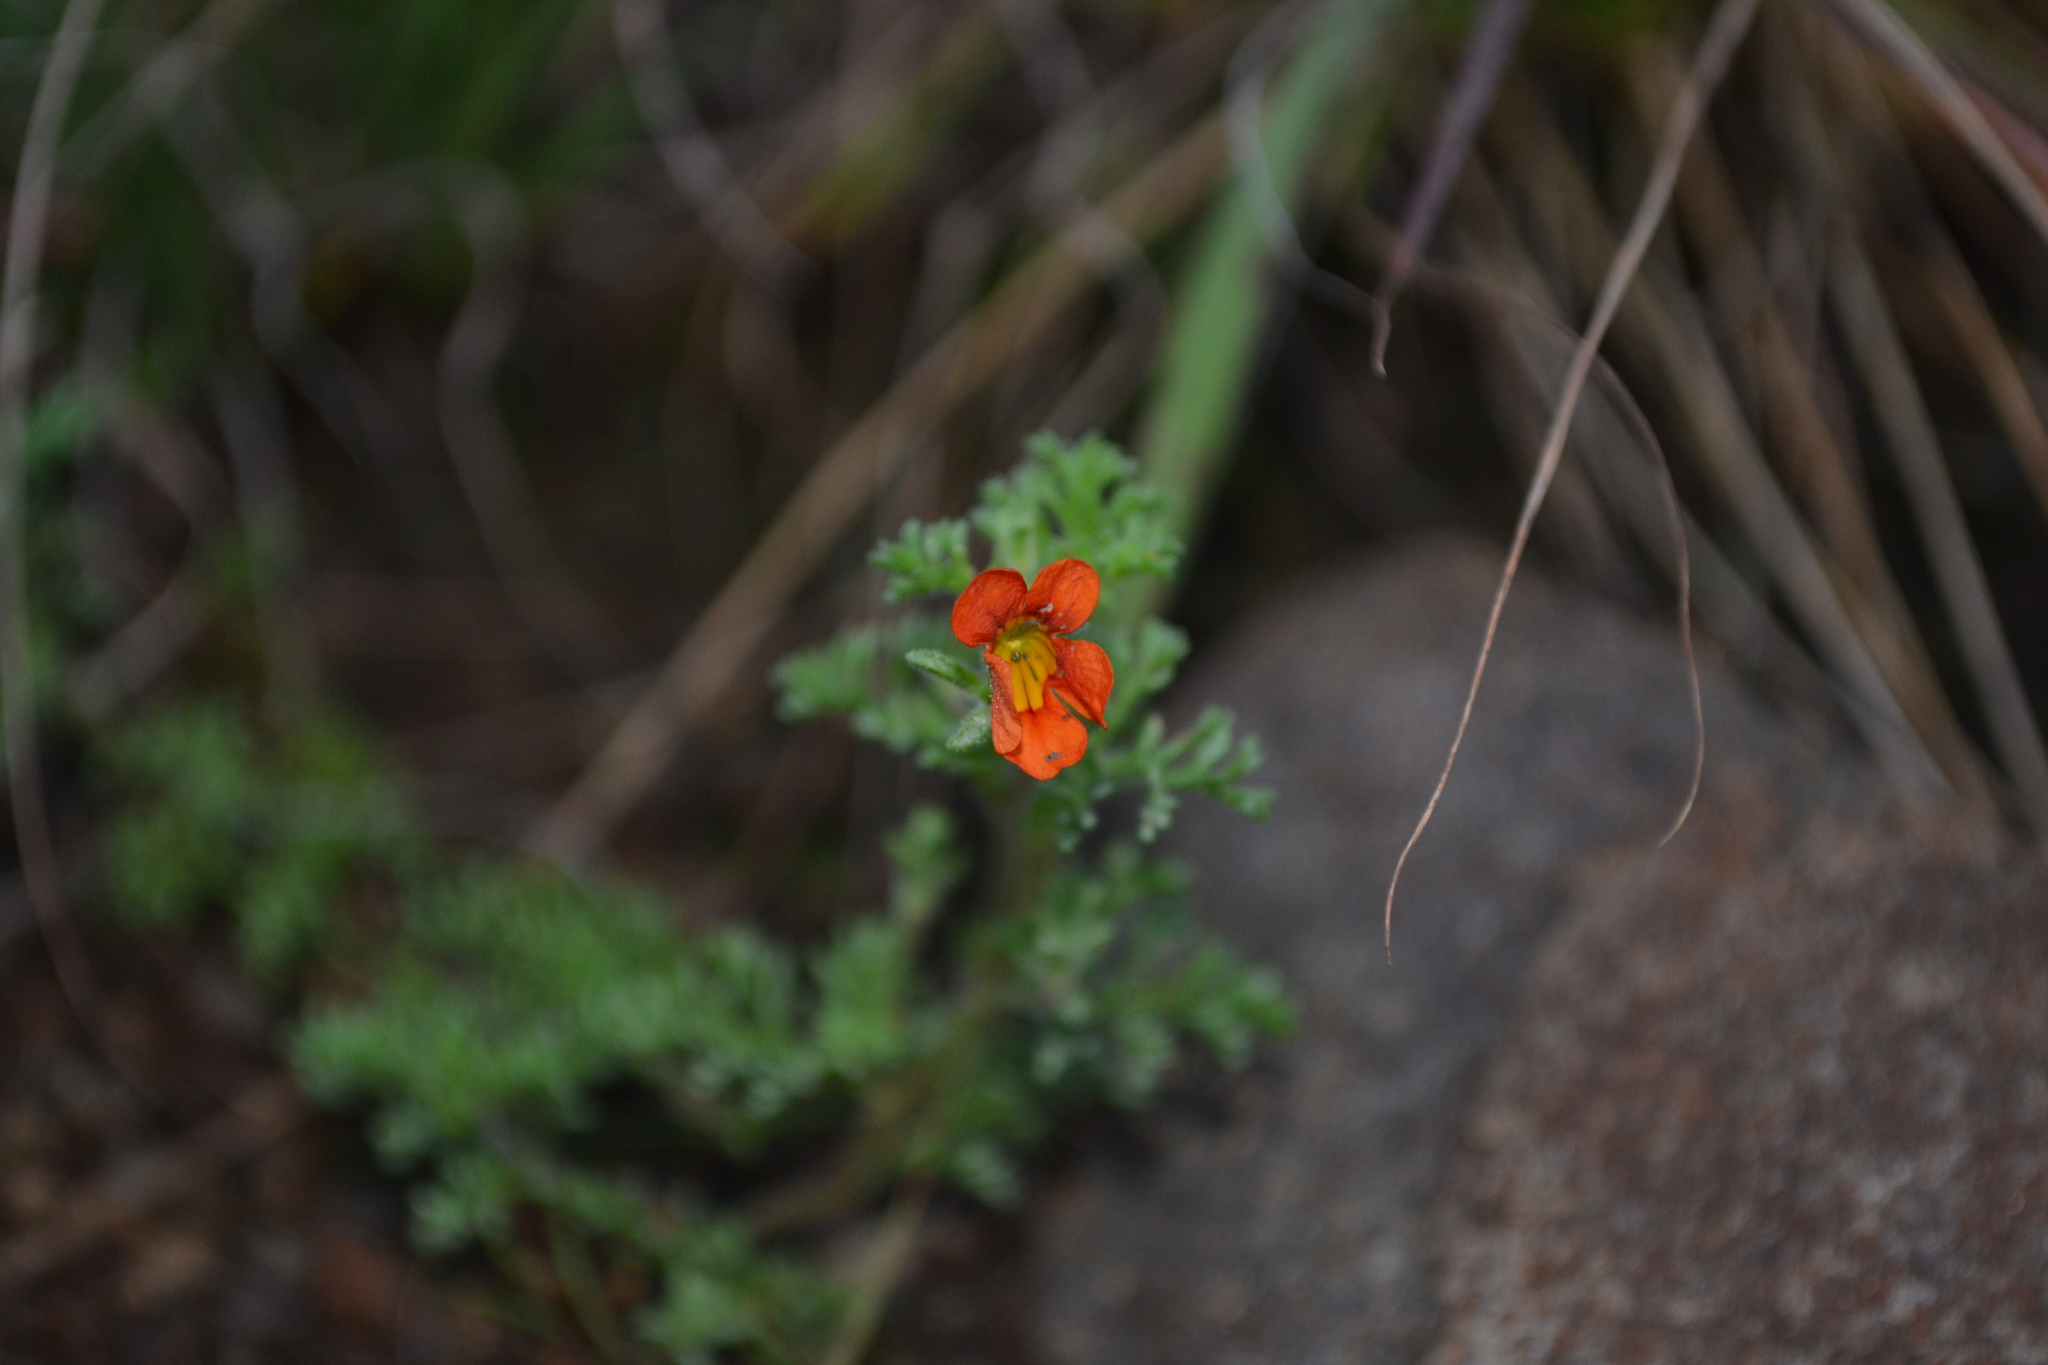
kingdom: Plantae
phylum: Tracheophyta
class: Magnoliopsida
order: Lamiales
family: Scrophulariaceae
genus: Jamesbrittenia
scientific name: Jamesbrittenia aurantiaca
